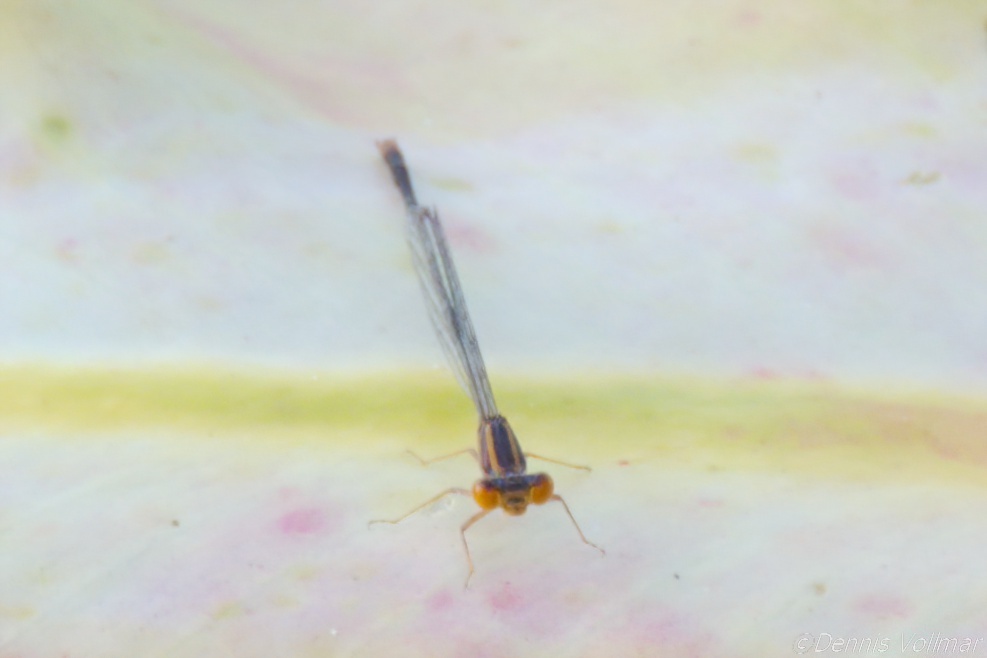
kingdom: Animalia
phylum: Arthropoda
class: Insecta
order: Odonata
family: Coenagrionidae
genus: Enallagma
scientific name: Enallagma pollutum
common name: Florida bluet
